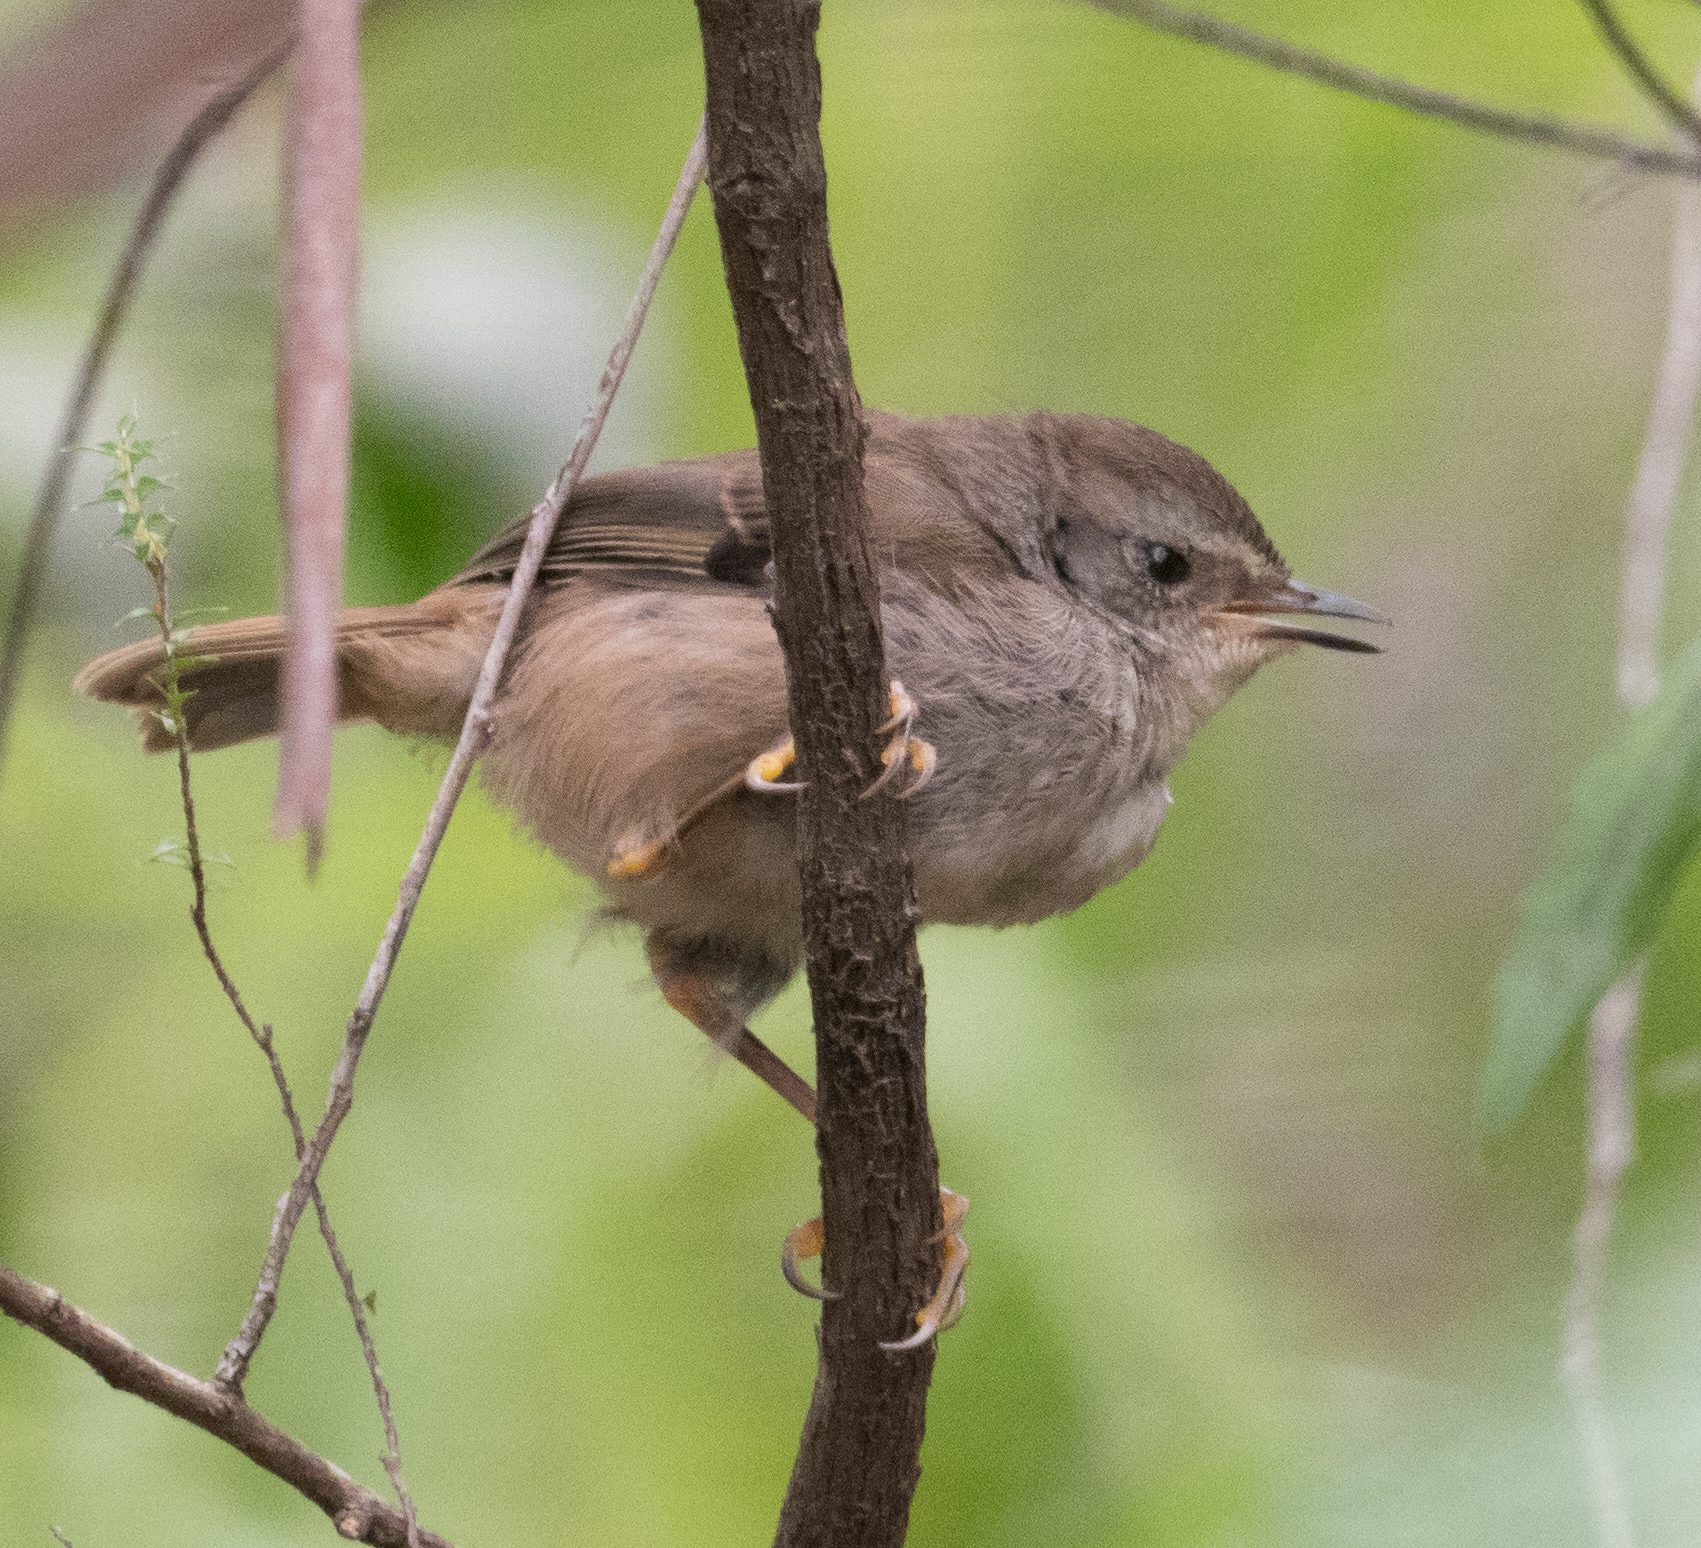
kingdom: Animalia
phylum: Chordata
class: Aves
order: Passeriformes
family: Acanthizidae
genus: Gerygone
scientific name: Gerygone mouki
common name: Brown gerygone
